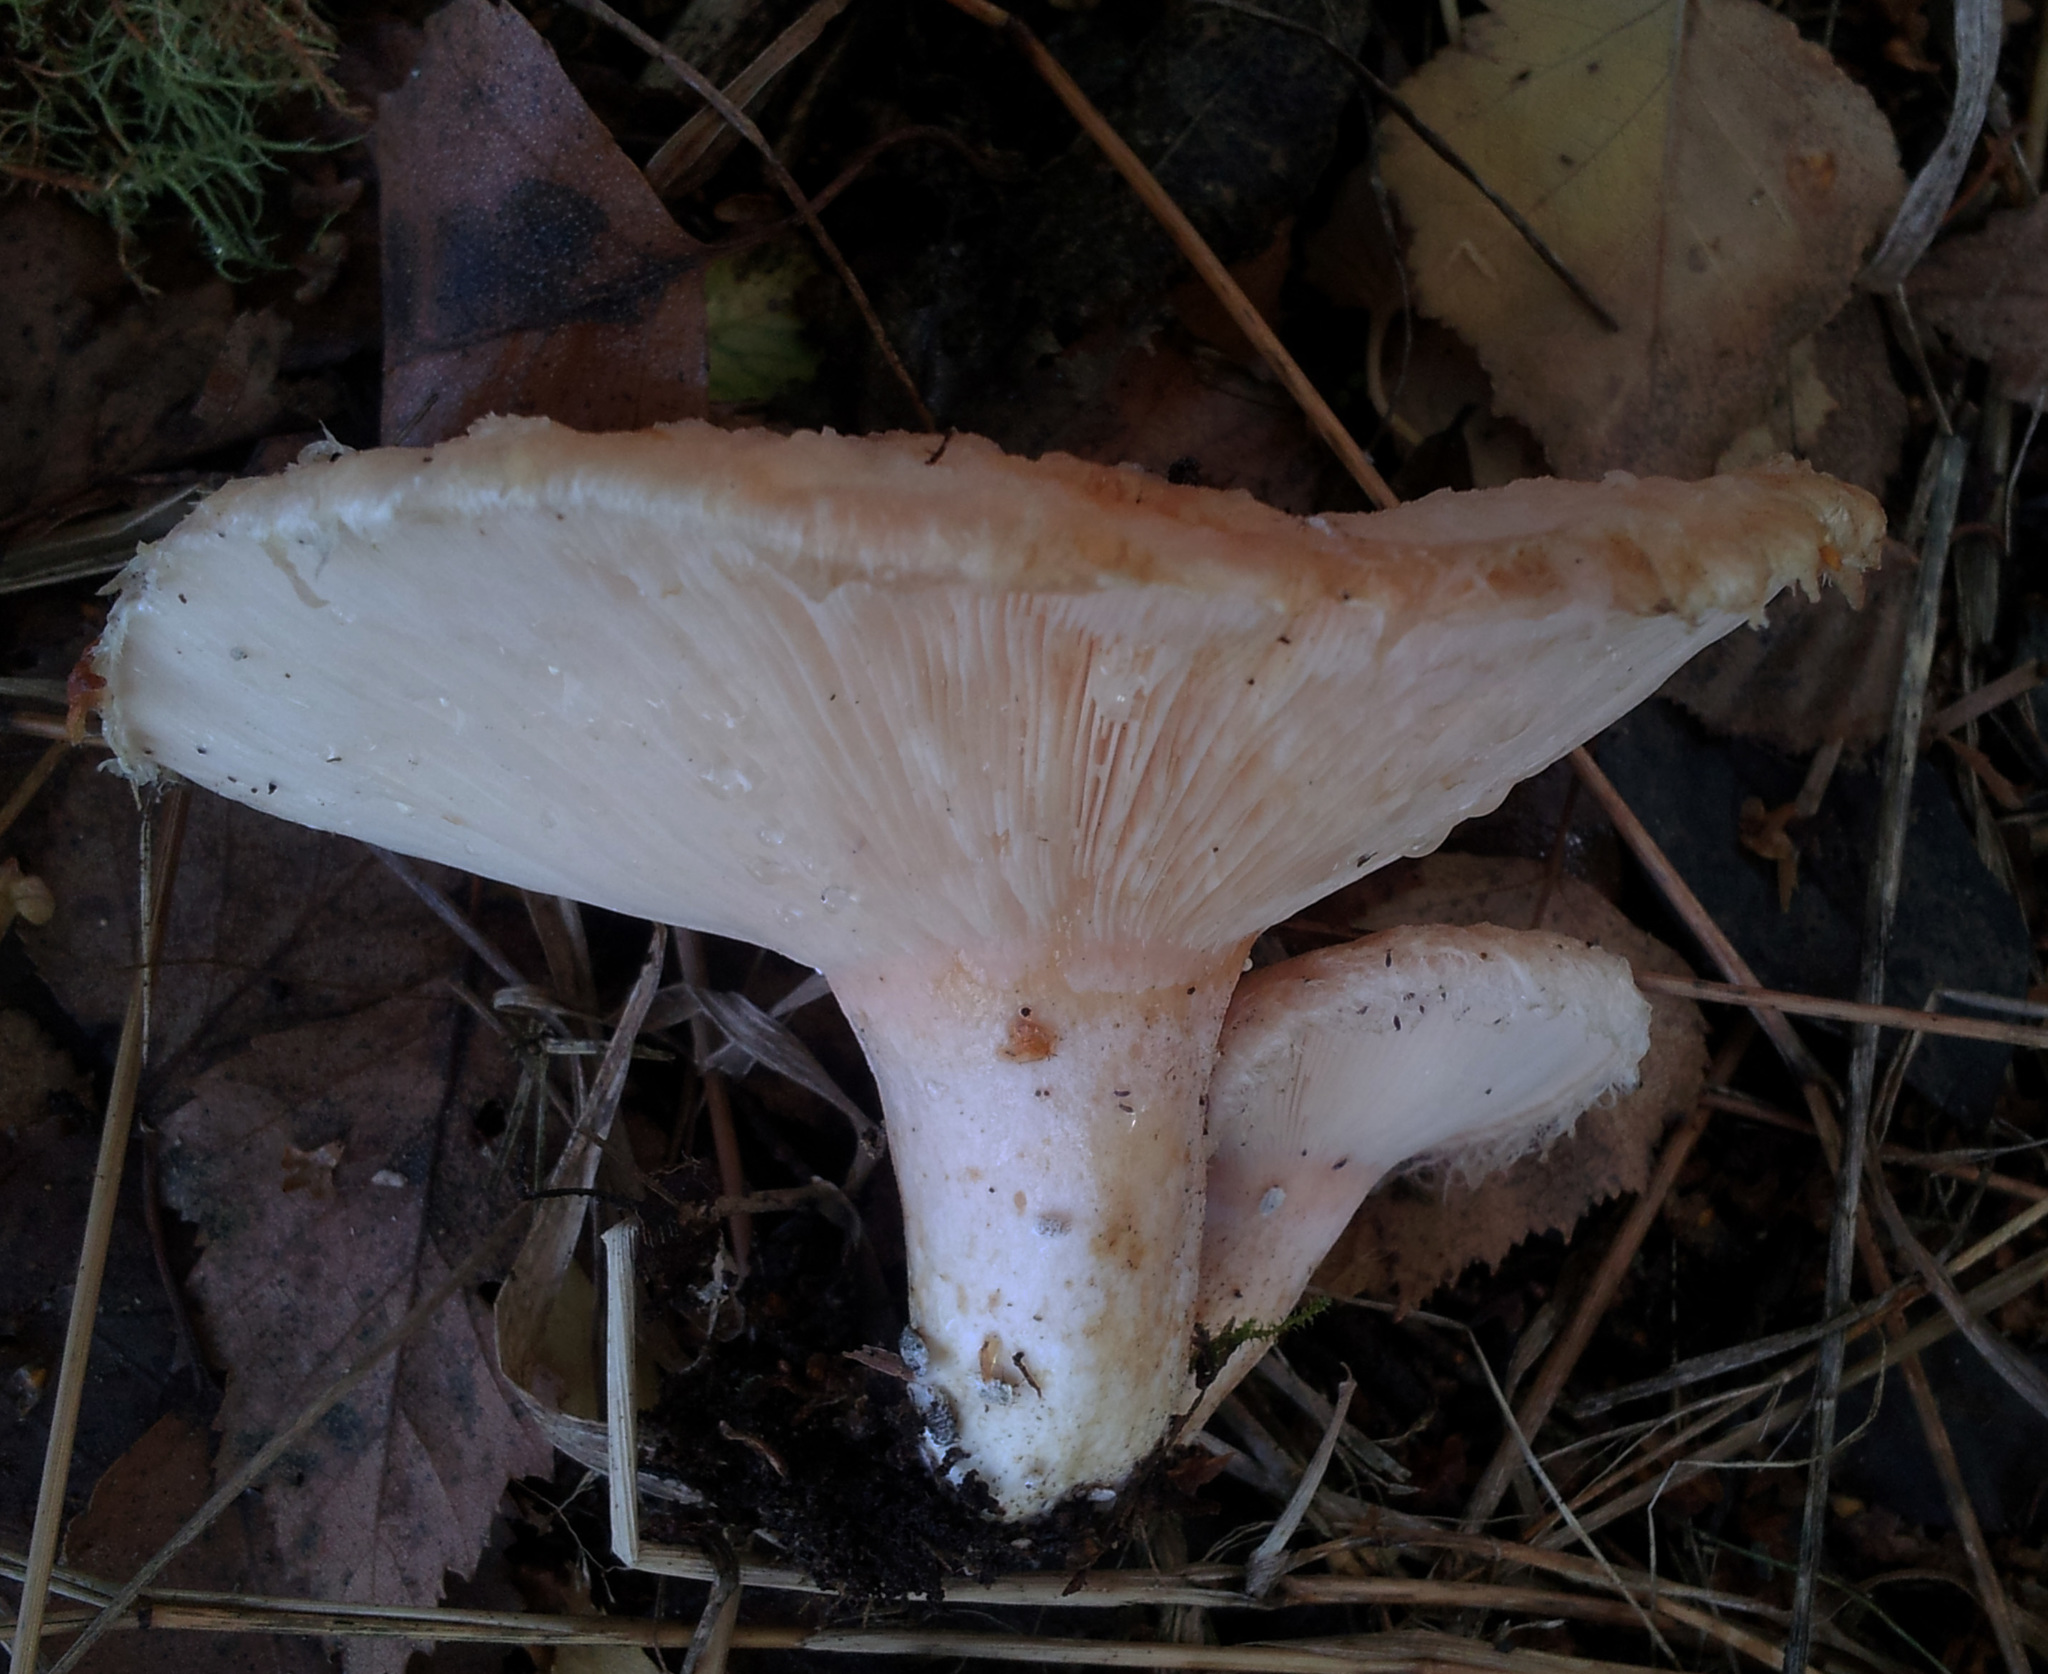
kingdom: Fungi
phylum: Basidiomycota
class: Agaricomycetes
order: Russulales
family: Russulaceae
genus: Lactarius
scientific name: Lactarius pubescens
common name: Bearded milkcap
